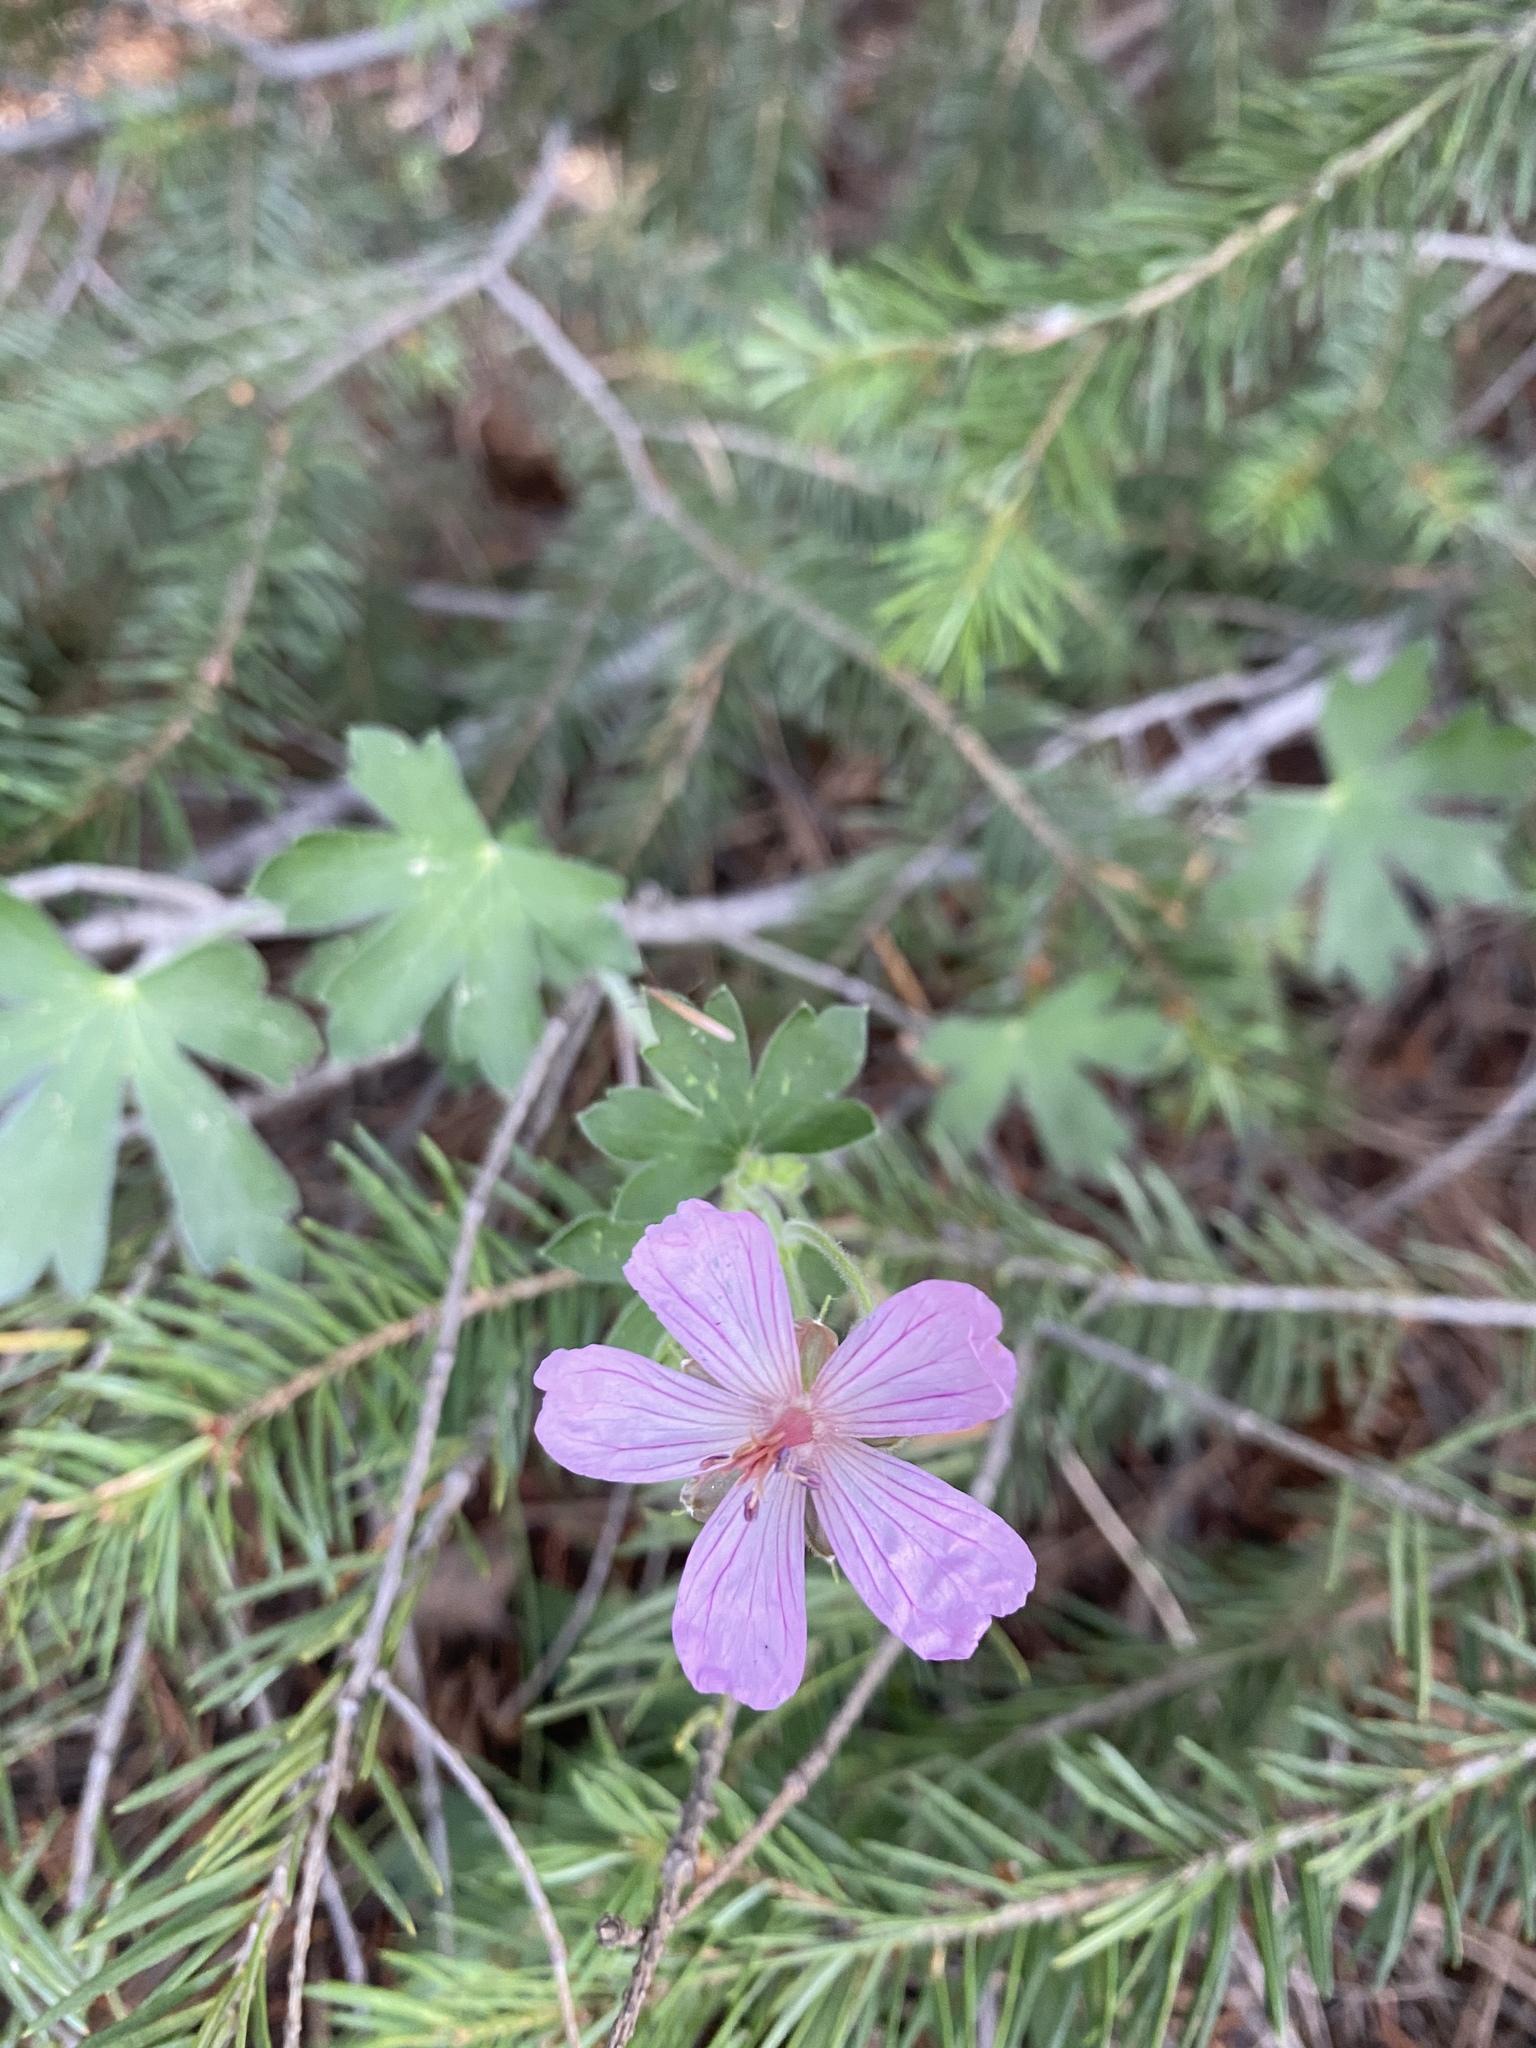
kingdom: Plantae
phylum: Tracheophyta
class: Magnoliopsida
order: Geraniales
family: Geraniaceae
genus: Geranium
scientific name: Geranium caespitosum
